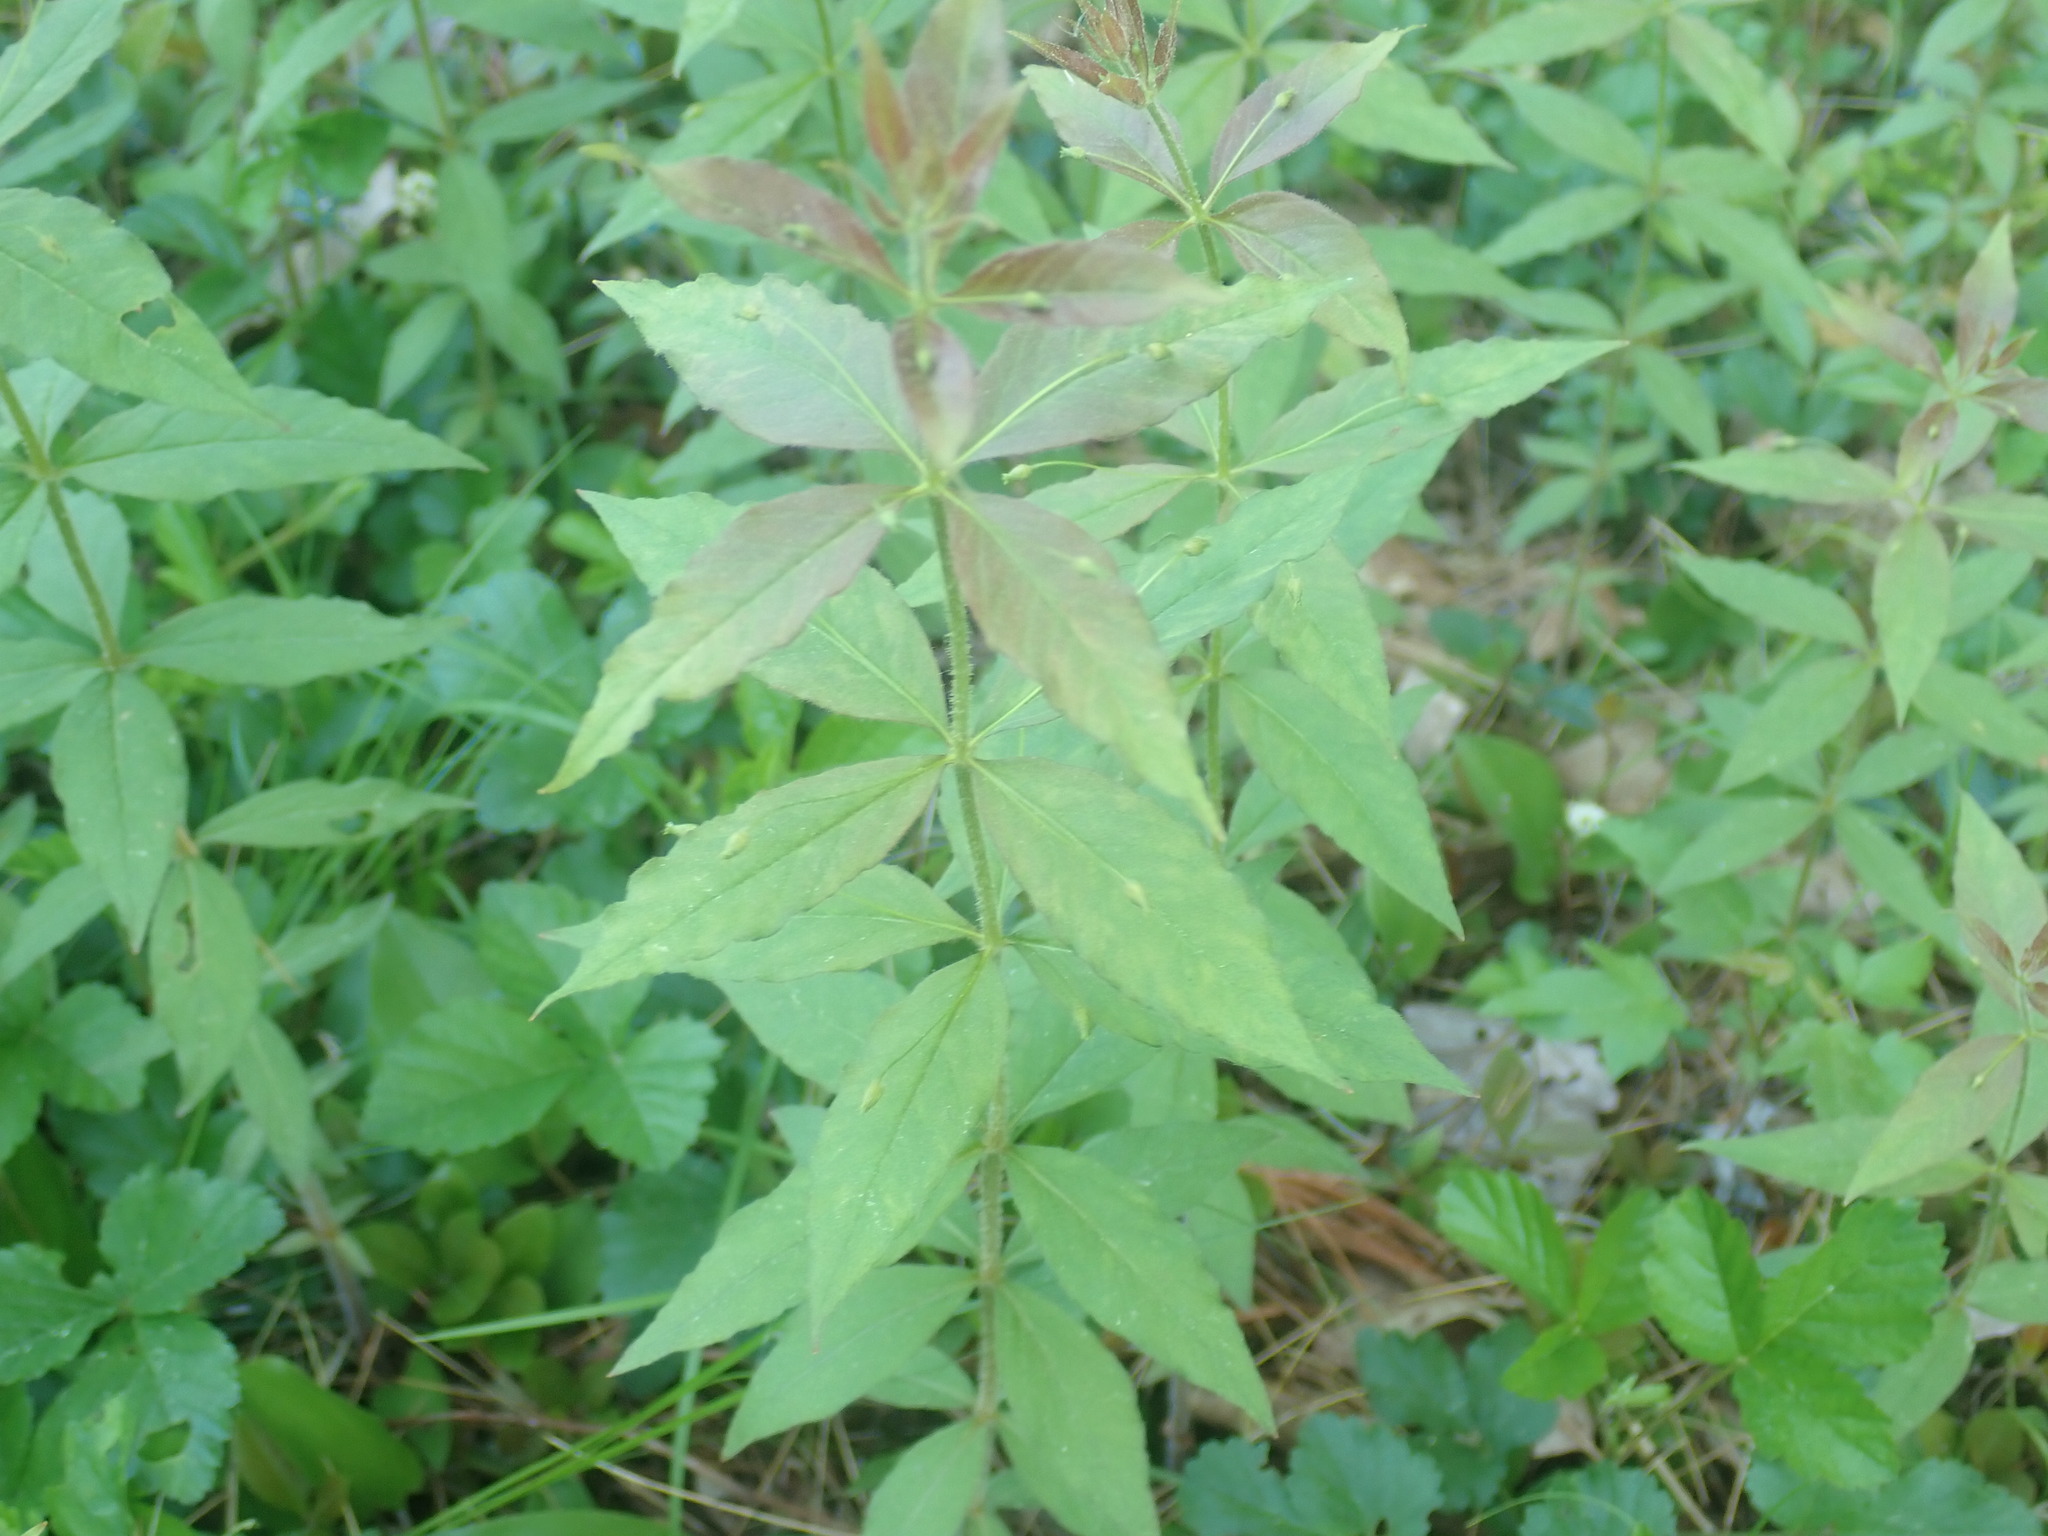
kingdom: Plantae
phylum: Tracheophyta
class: Magnoliopsida
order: Ericales
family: Primulaceae
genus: Lysimachia
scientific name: Lysimachia quadrifolia
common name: Whorled loosestrife
